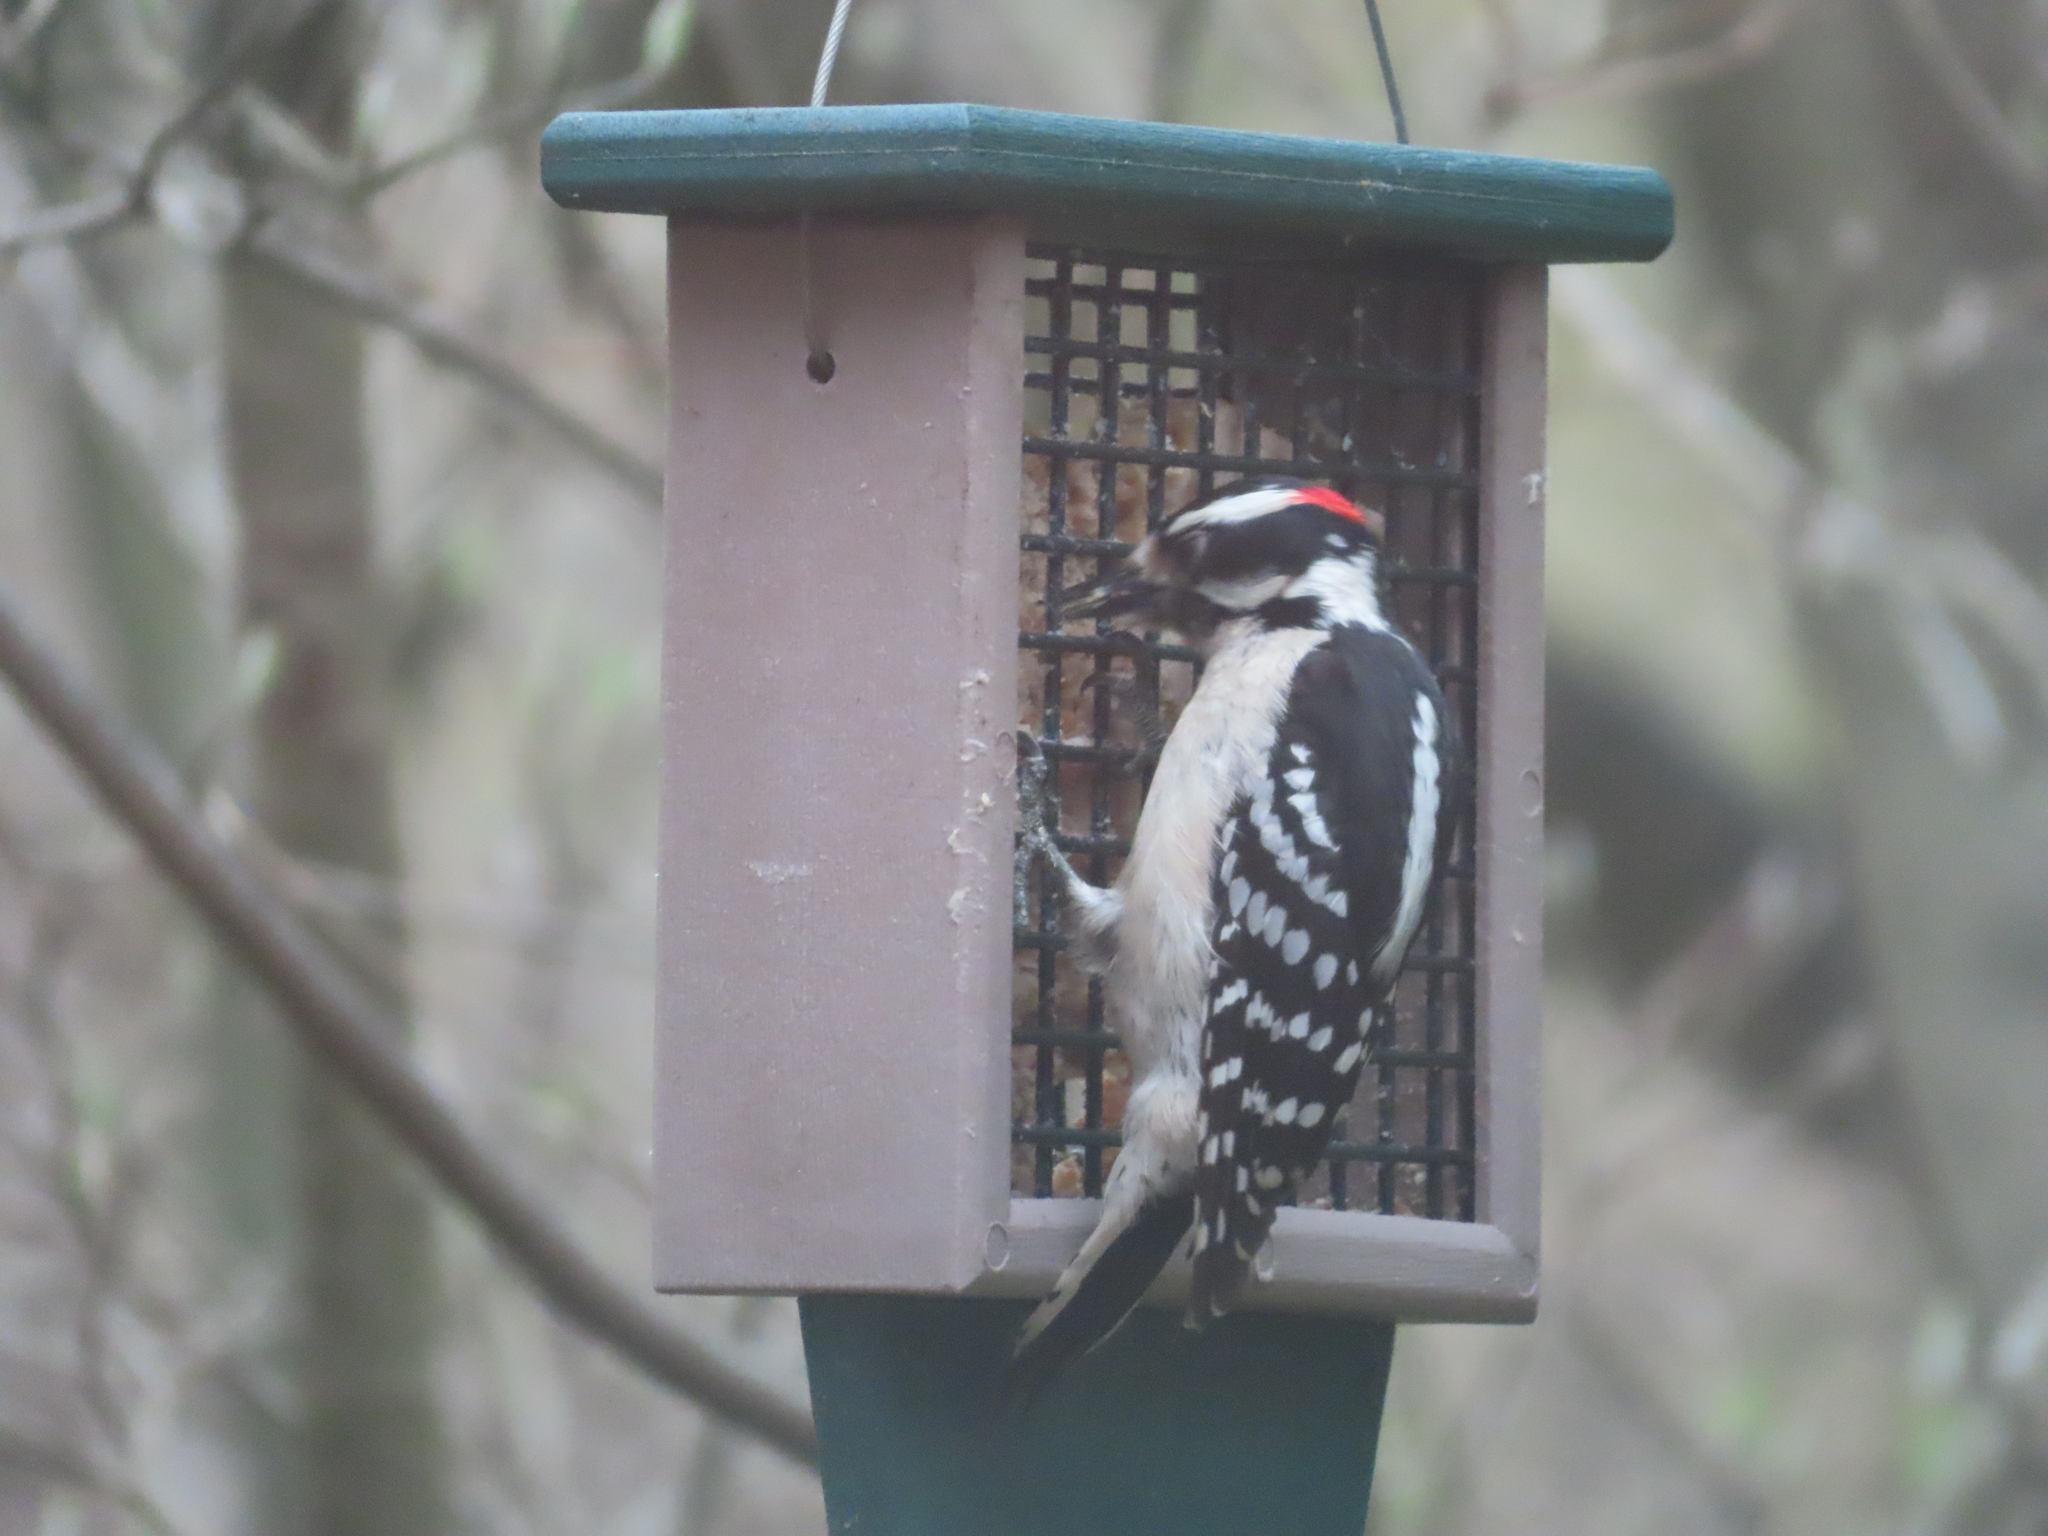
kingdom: Animalia
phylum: Chordata
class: Aves
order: Piciformes
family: Picidae
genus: Dryobates
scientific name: Dryobates pubescens
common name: Downy woodpecker
